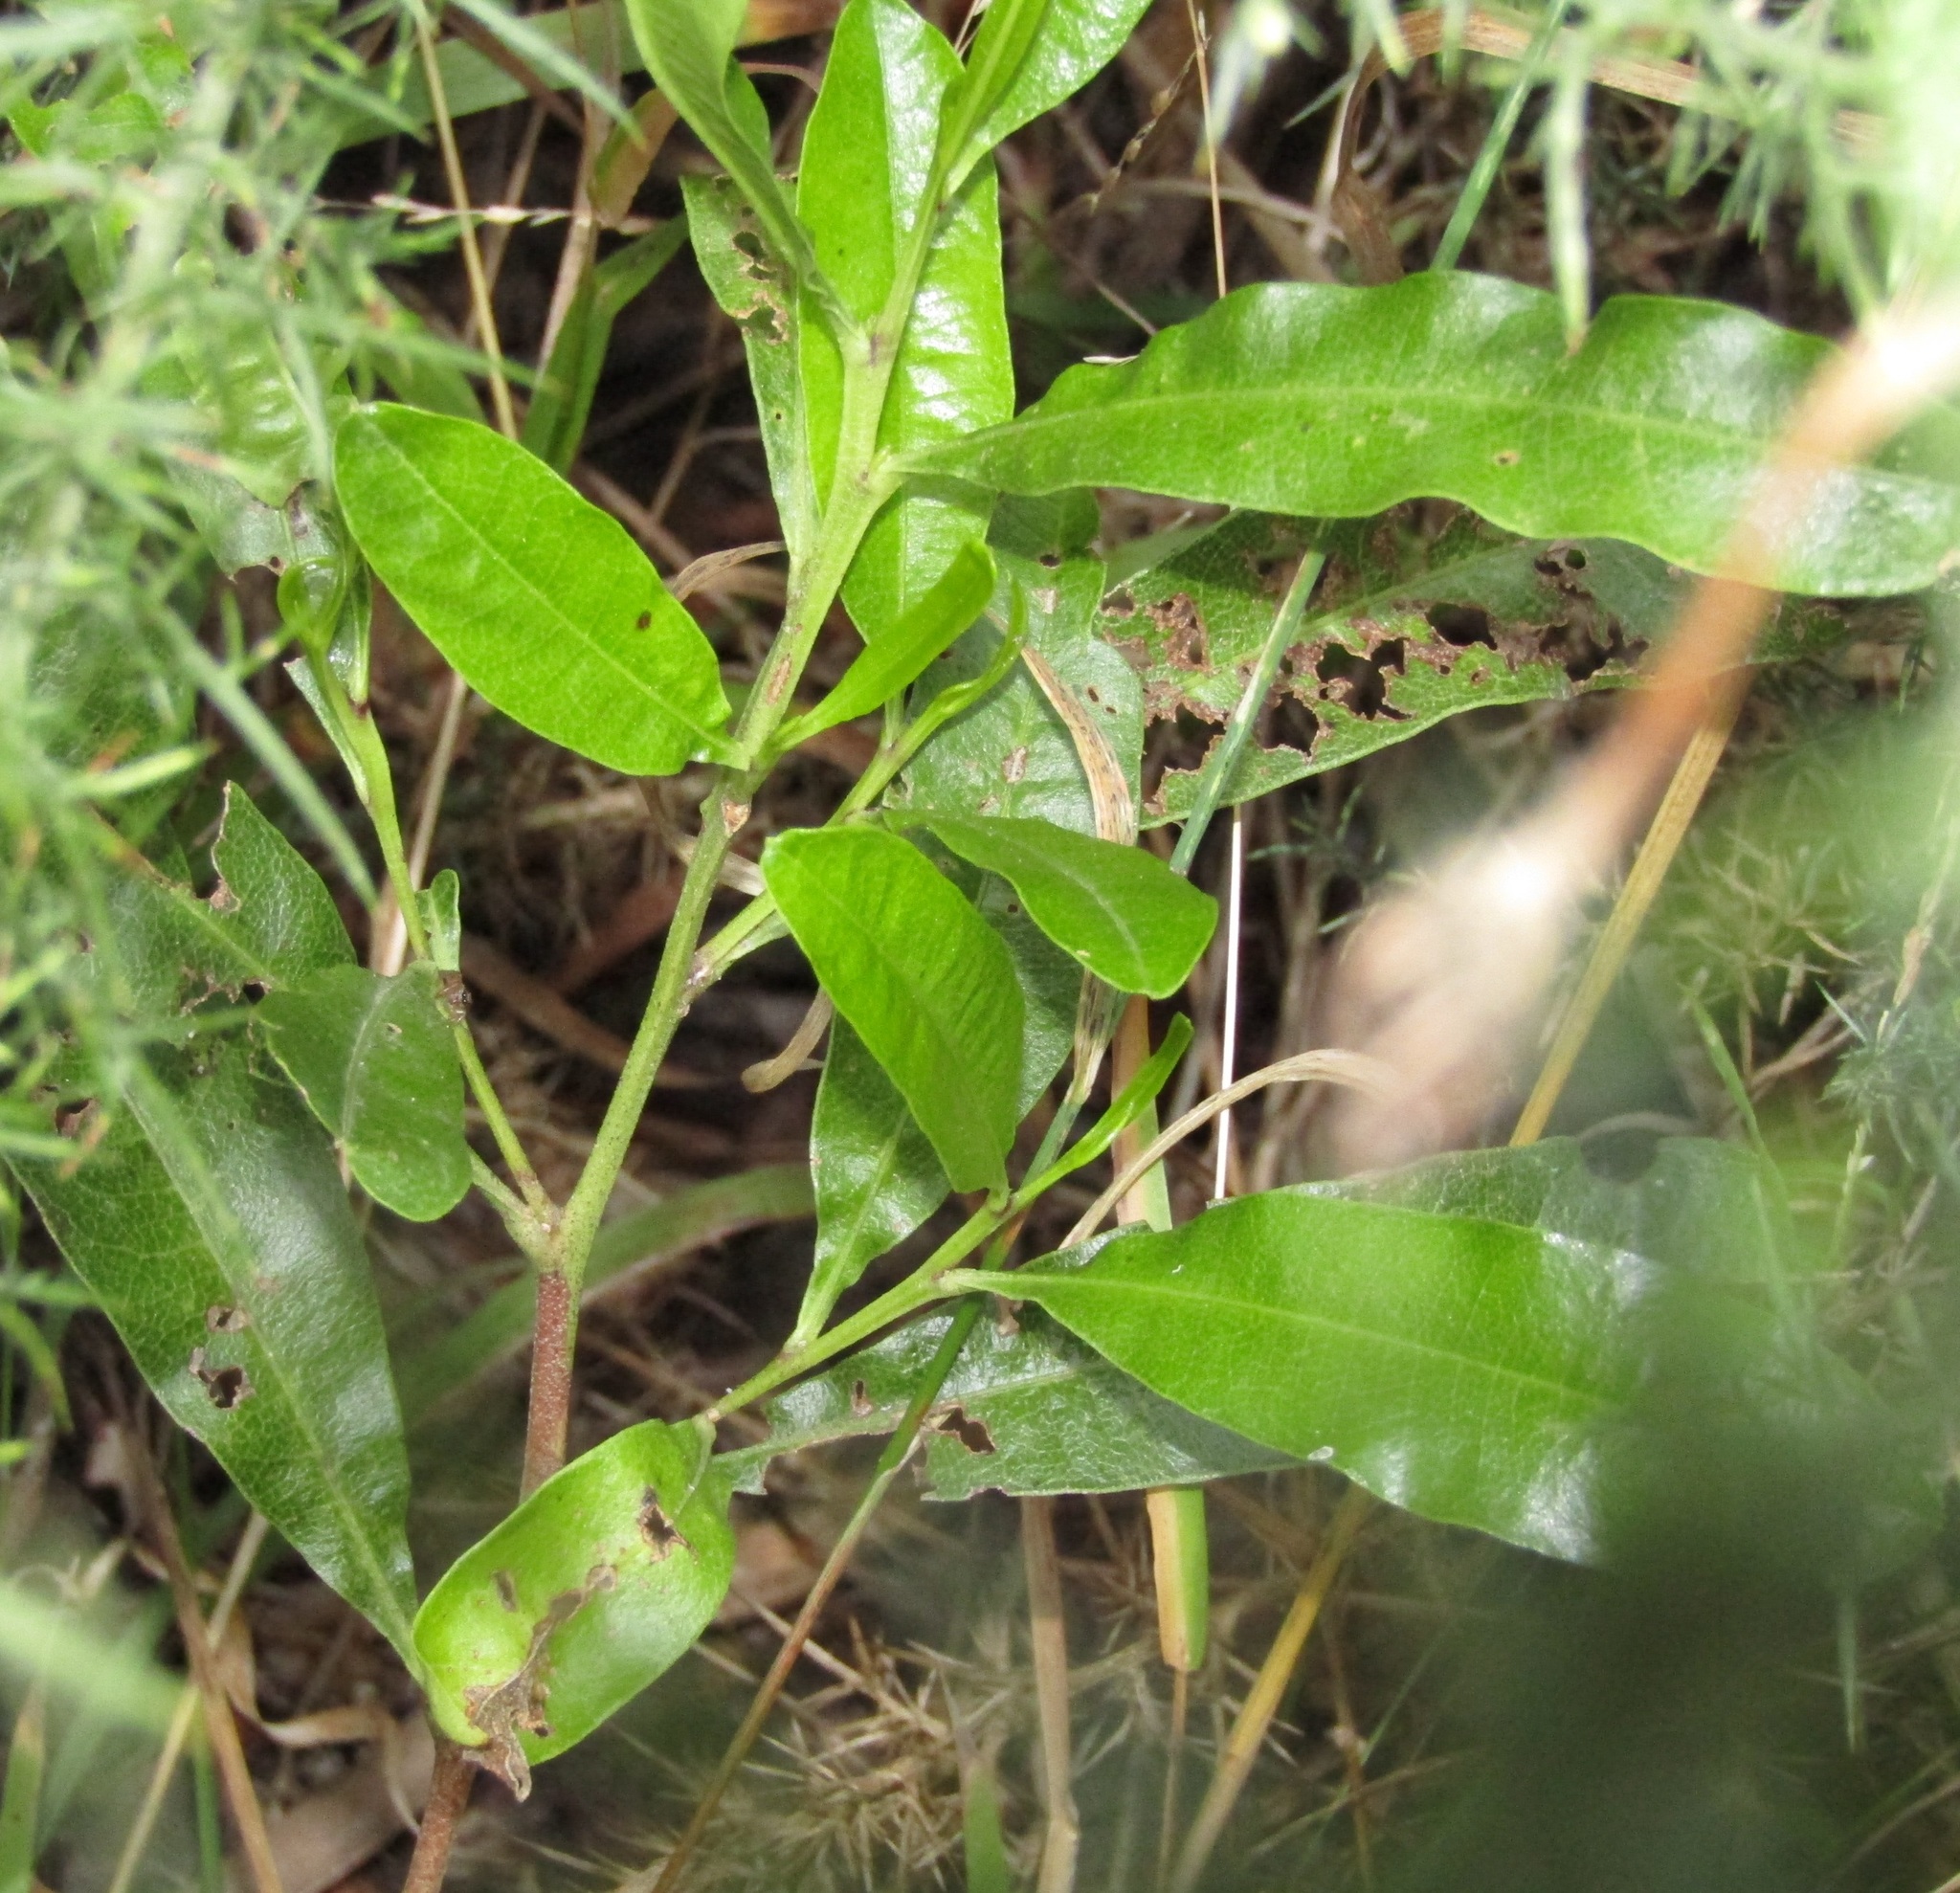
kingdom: Plantae
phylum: Tracheophyta
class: Magnoliopsida
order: Sapindales
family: Sapindaceae
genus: Dodonaea
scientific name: Dodonaea viscosa
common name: Hopbush
